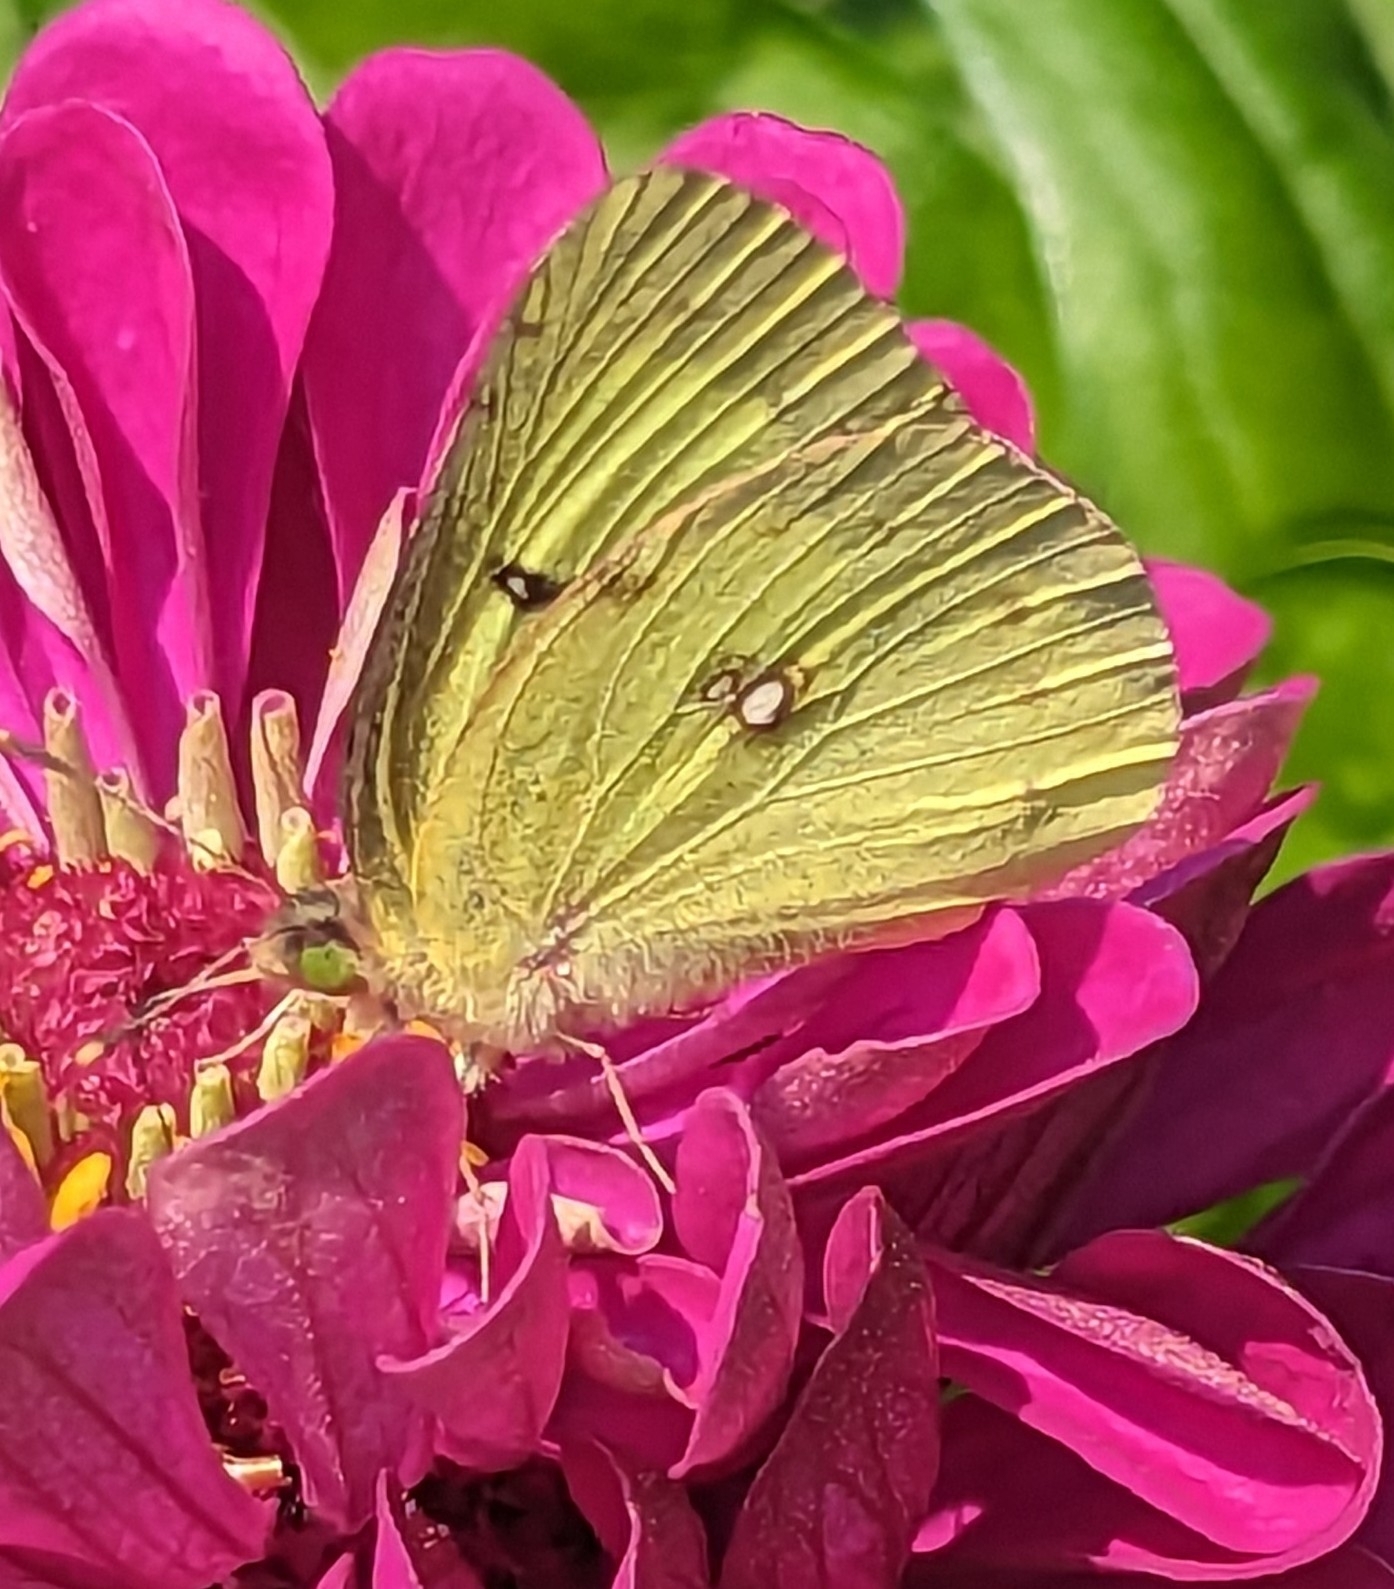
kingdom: Animalia
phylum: Arthropoda
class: Insecta
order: Lepidoptera
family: Pieridae
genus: Colias
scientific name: Colias philodice
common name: Clouded sulphur
